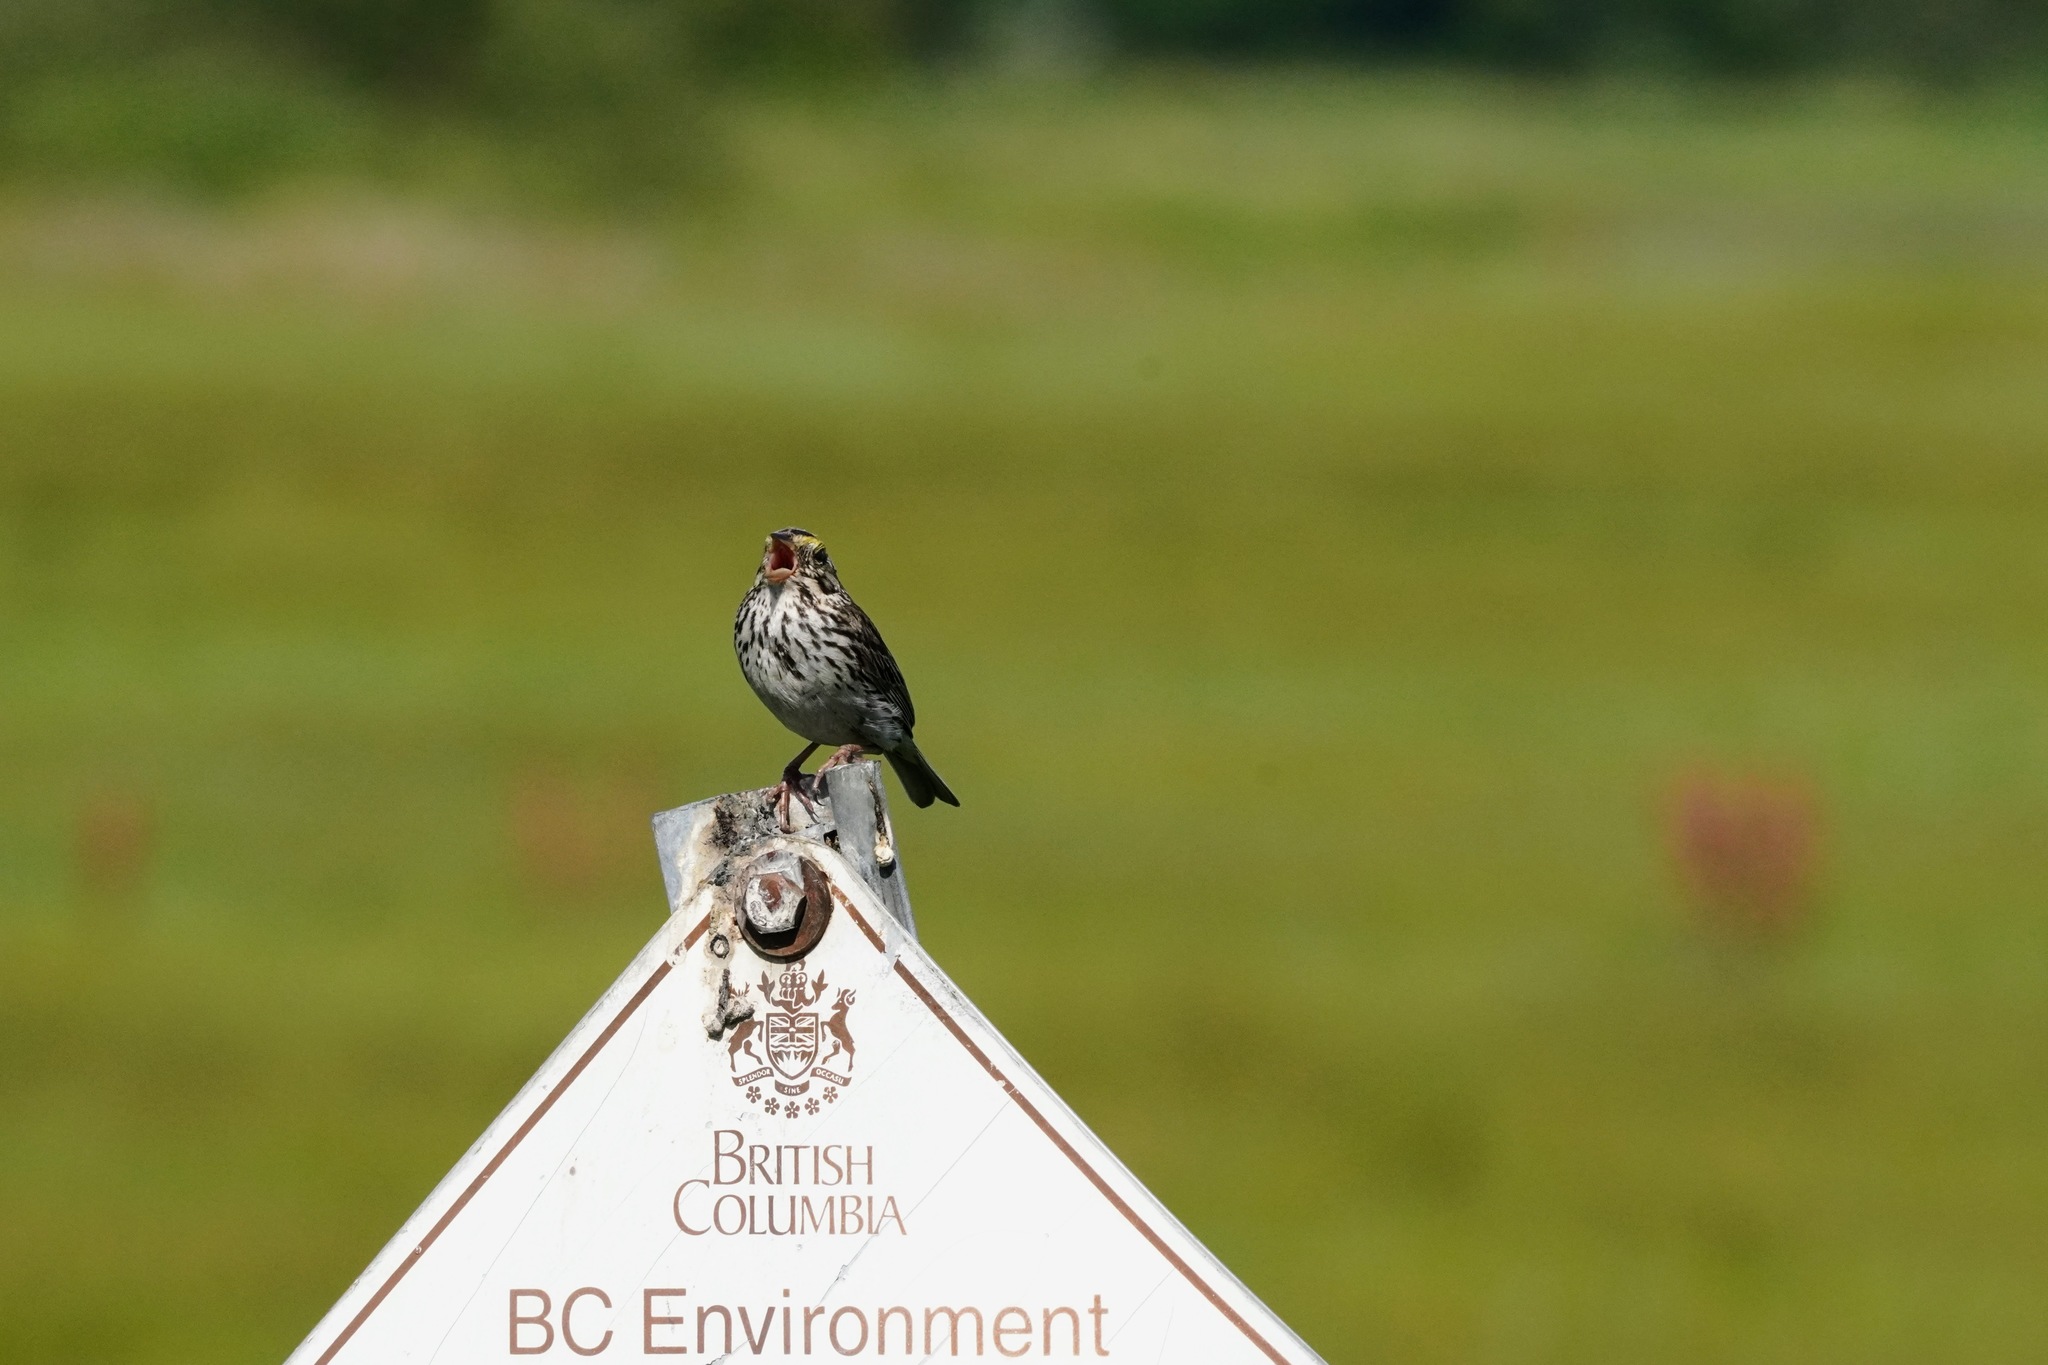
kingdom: Animalia
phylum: Chordata
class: Aves
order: Passeriformes
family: Passerellidae
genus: Passerculus
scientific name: Passerculus sandwichensis
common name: Savannah sparrow
